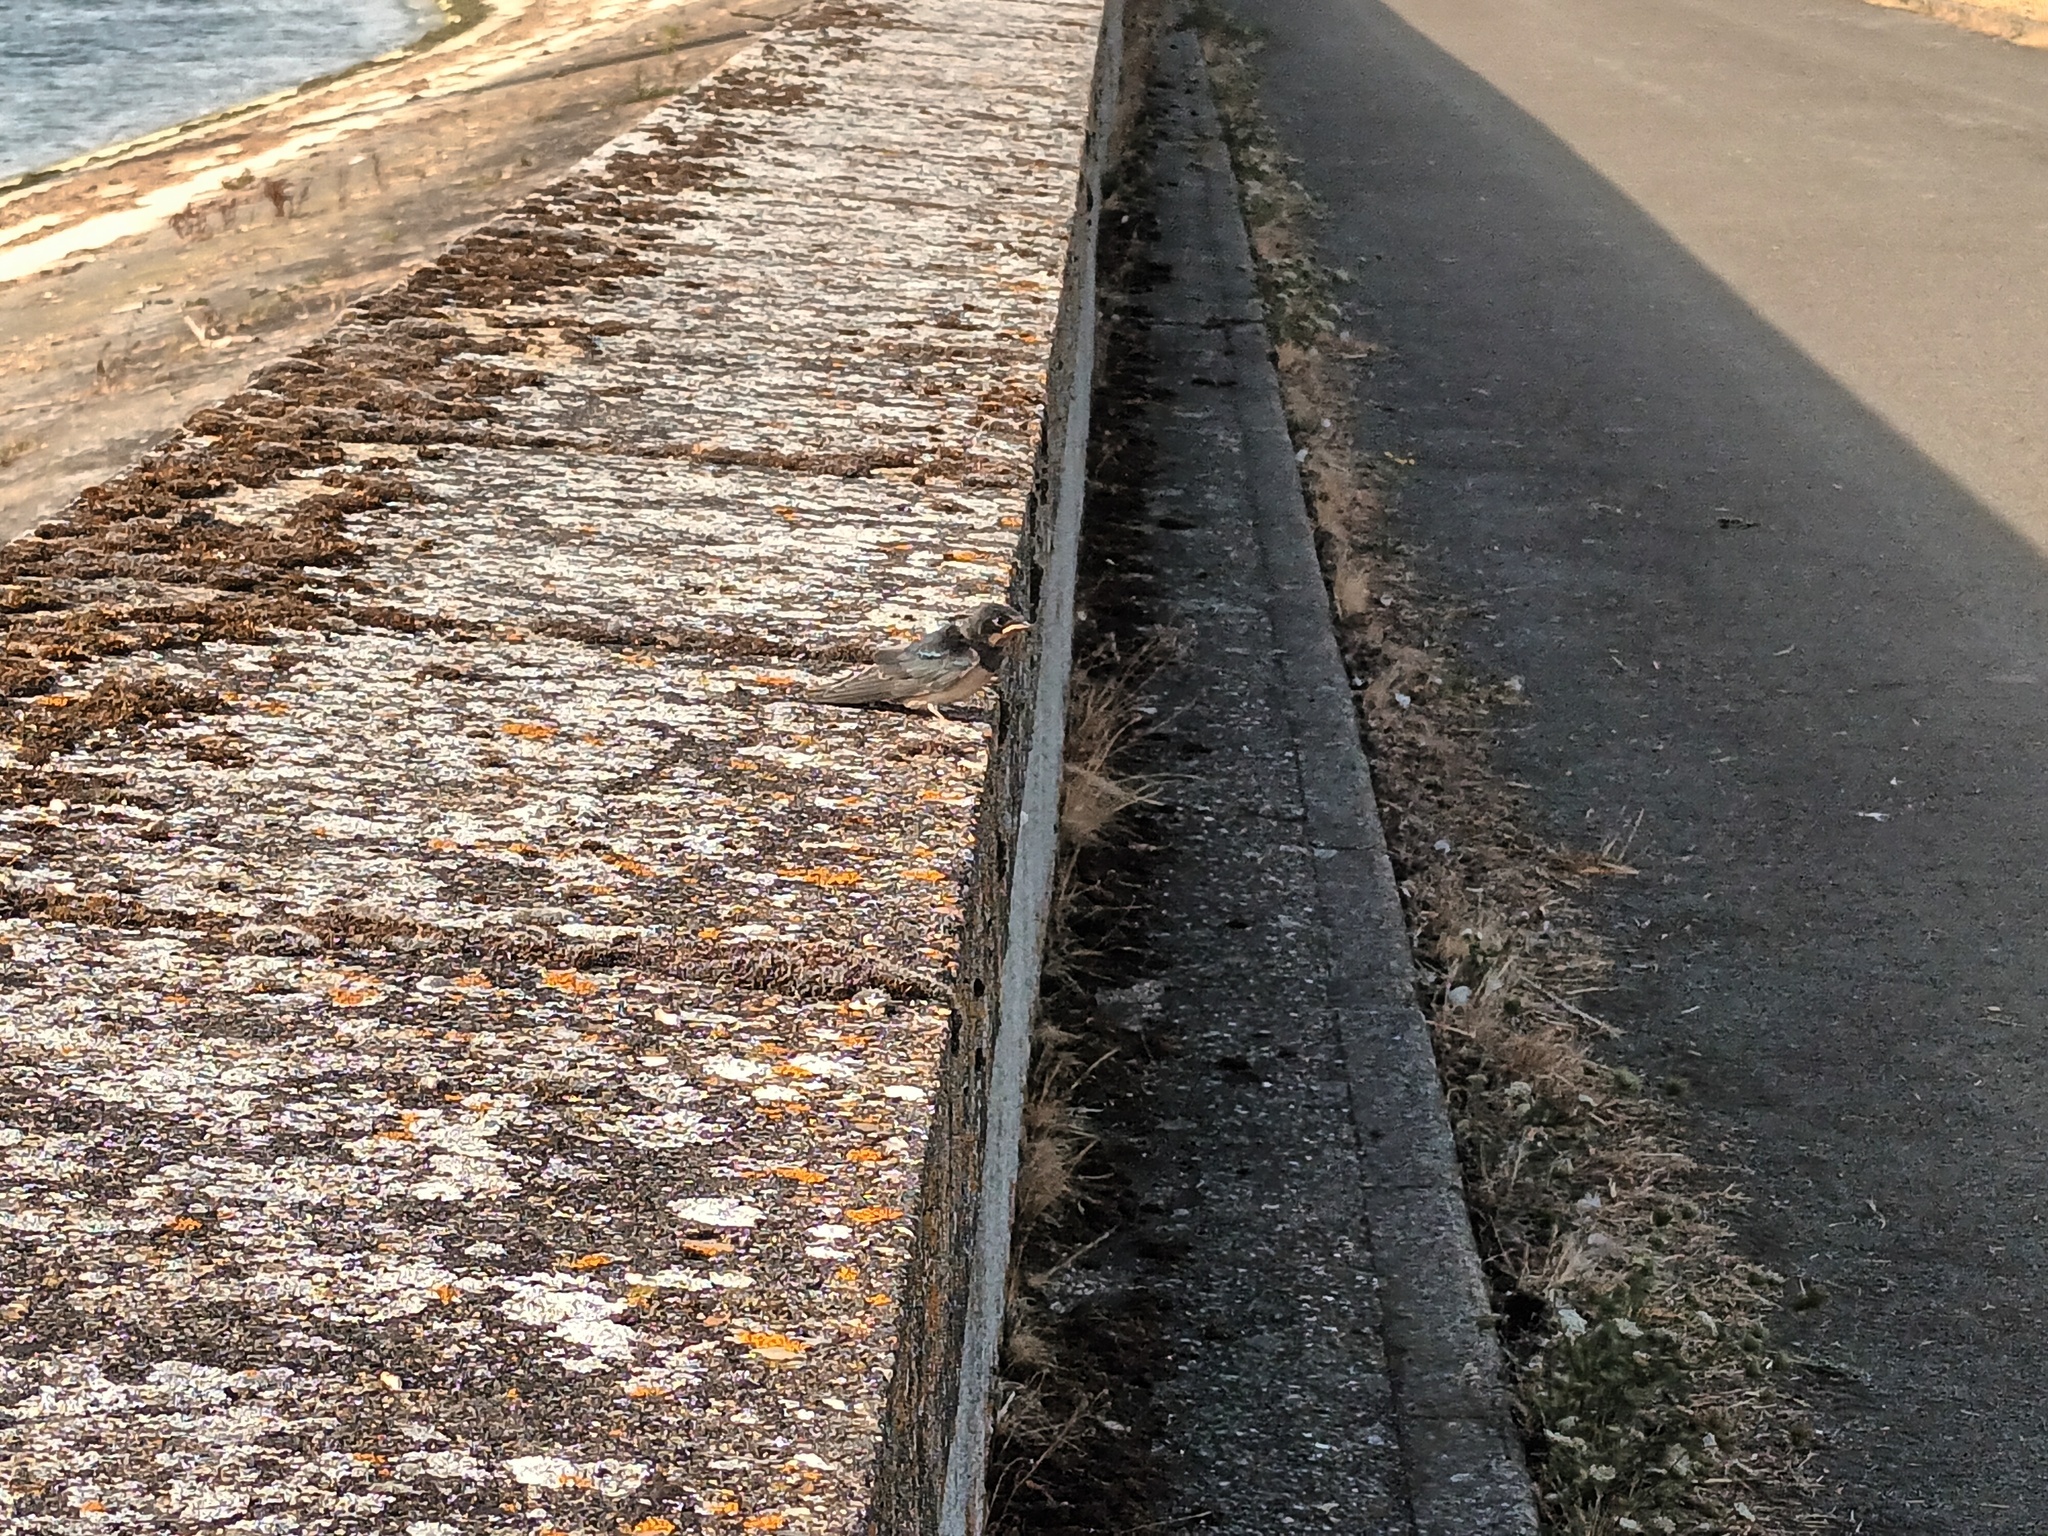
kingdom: Animalia
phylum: Chordata
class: Aves
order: Passeriformes
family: Hirundinidae
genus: Hirundo
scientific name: Hirundo rustica
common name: Barn swallow
